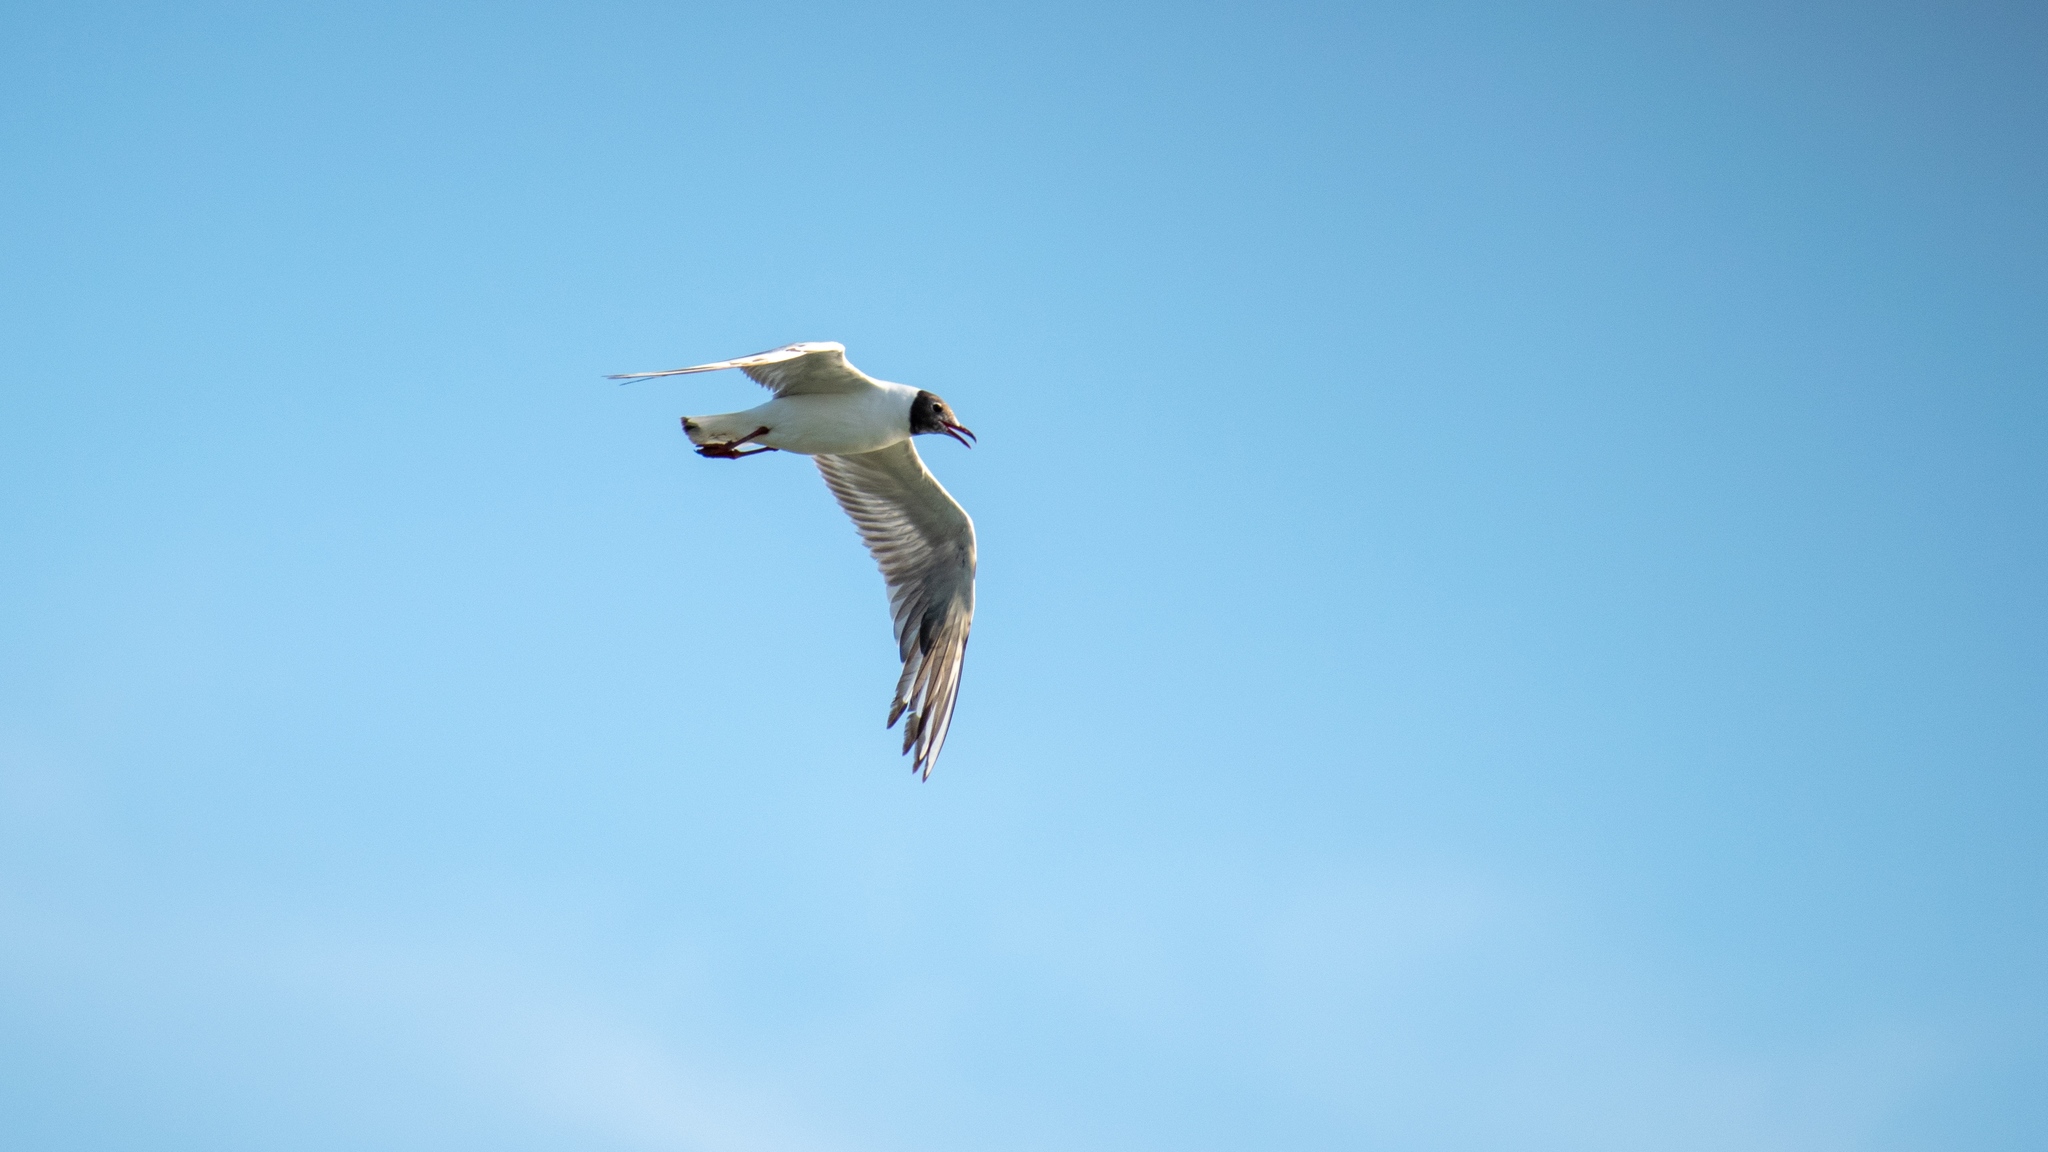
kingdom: Animalia
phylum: Chordata
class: Aves
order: Charadriiformes
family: Laridae
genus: Chroicocephalus
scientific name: Chroicocephalus ridibundus
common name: Black-headed gull
